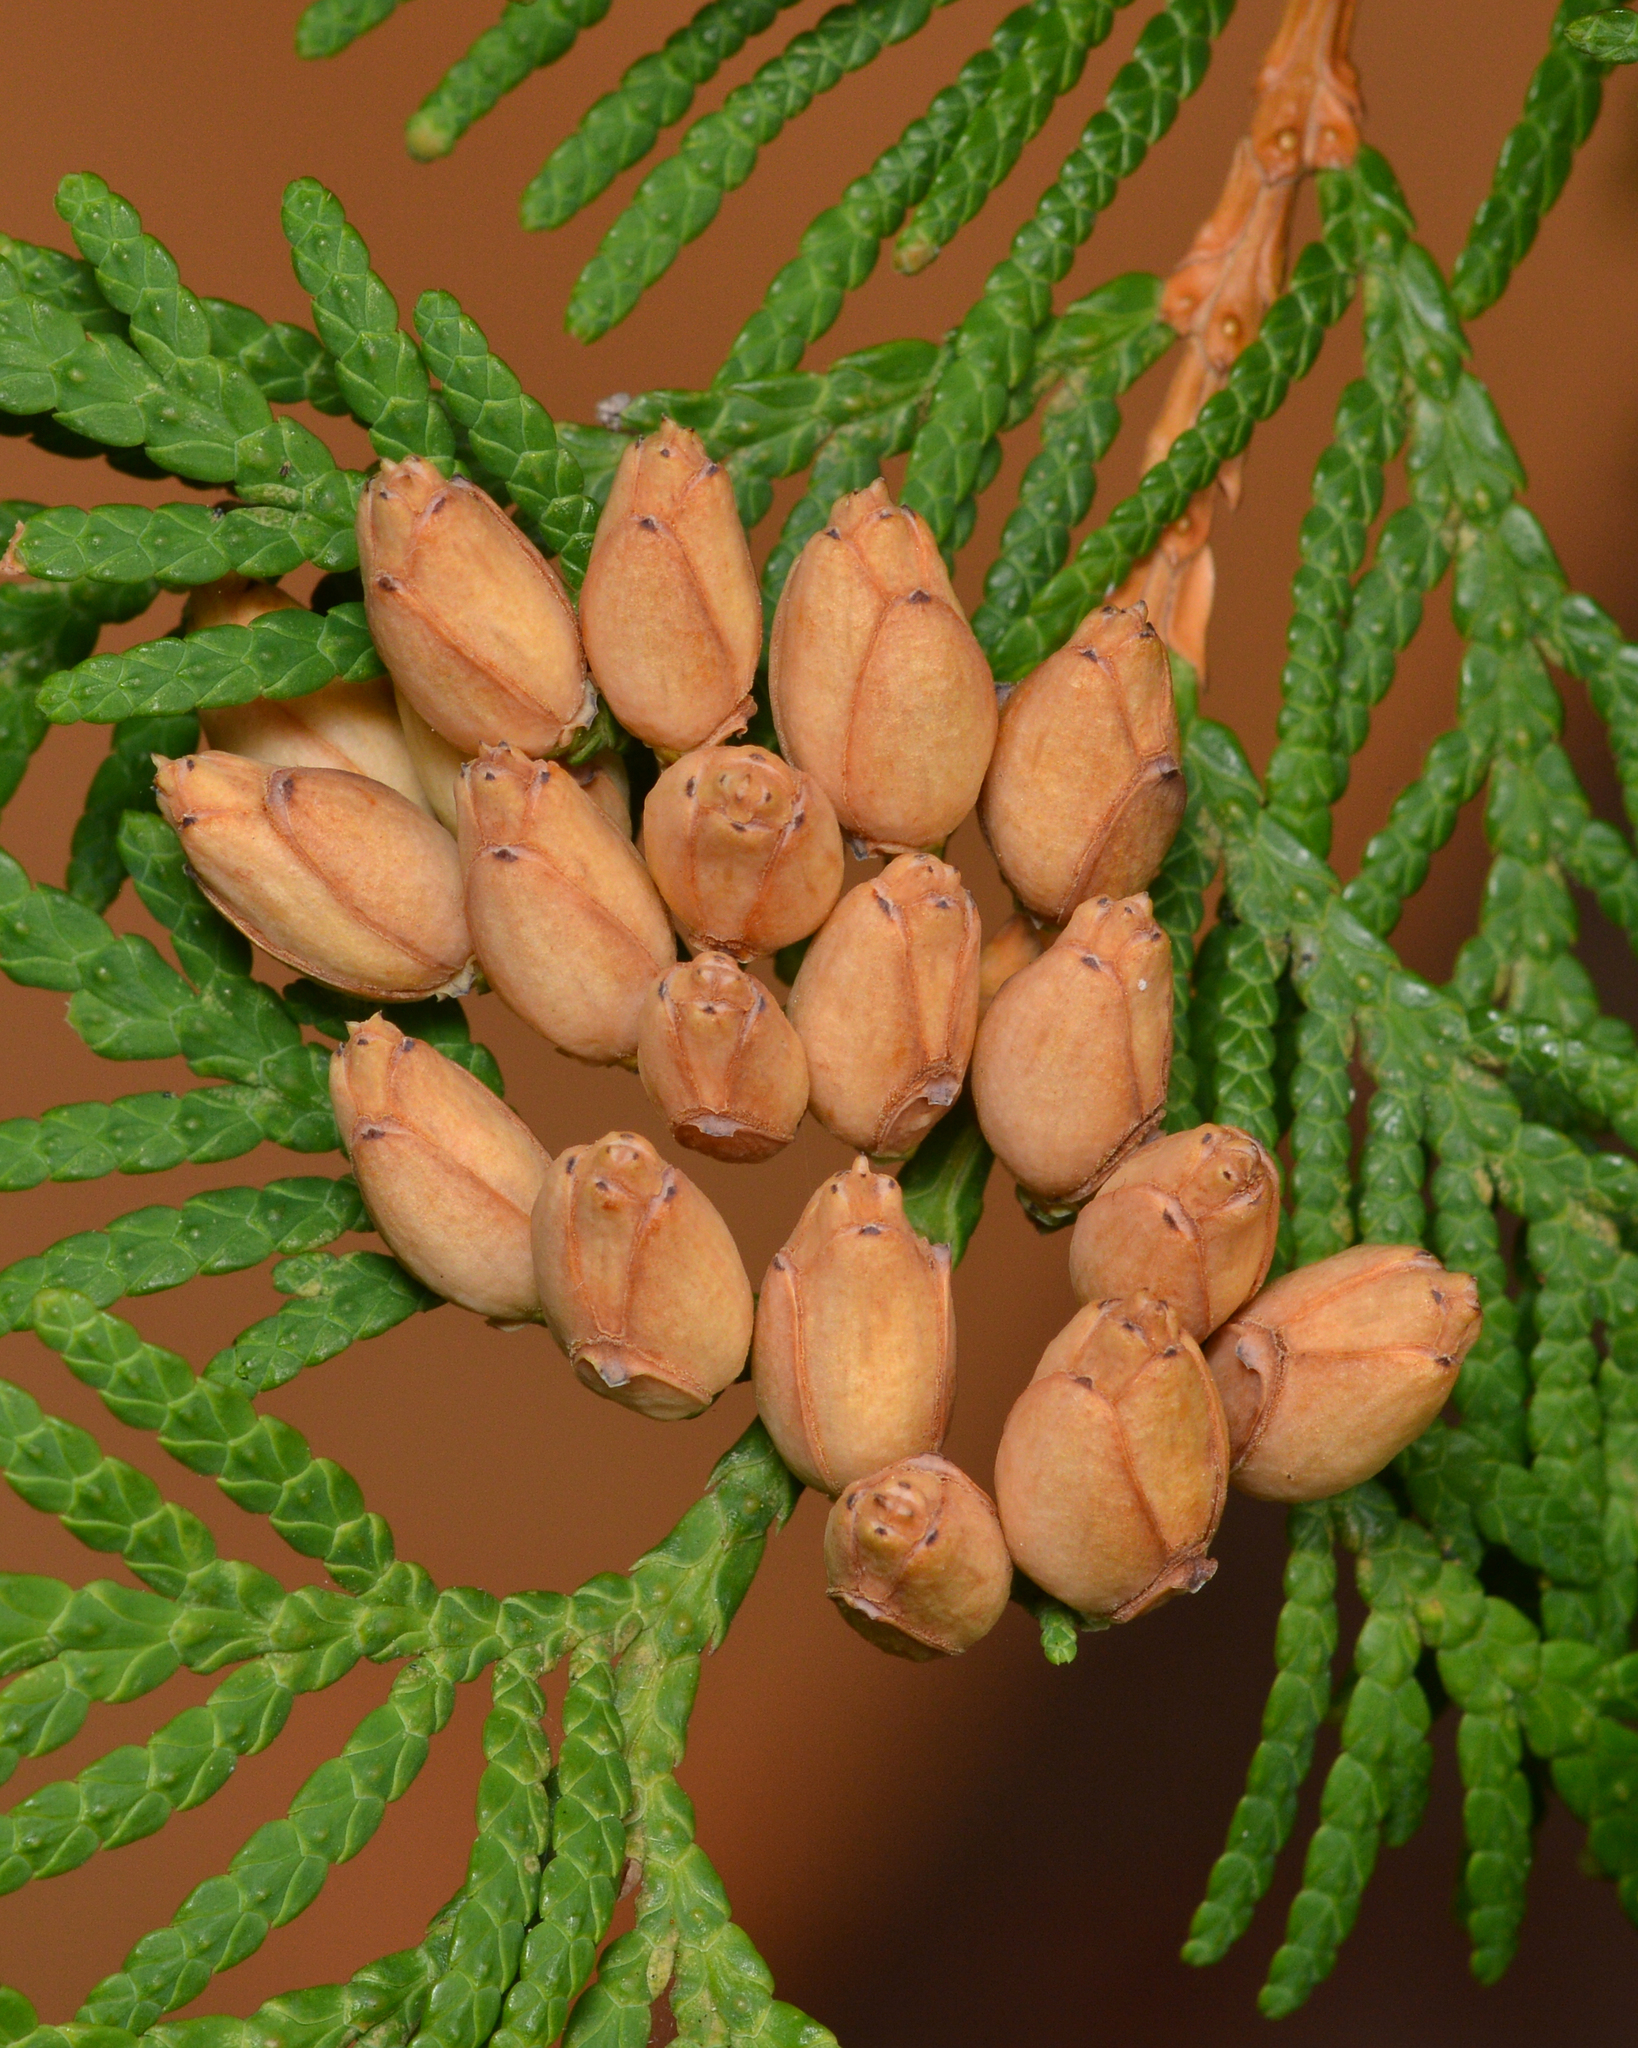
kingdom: Plantae
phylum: Tracheophyta
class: Pinopsida
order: Pinales
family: Cupressaceae
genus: Thuja
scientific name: Thuja occidentalis
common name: Northern white-cedar
